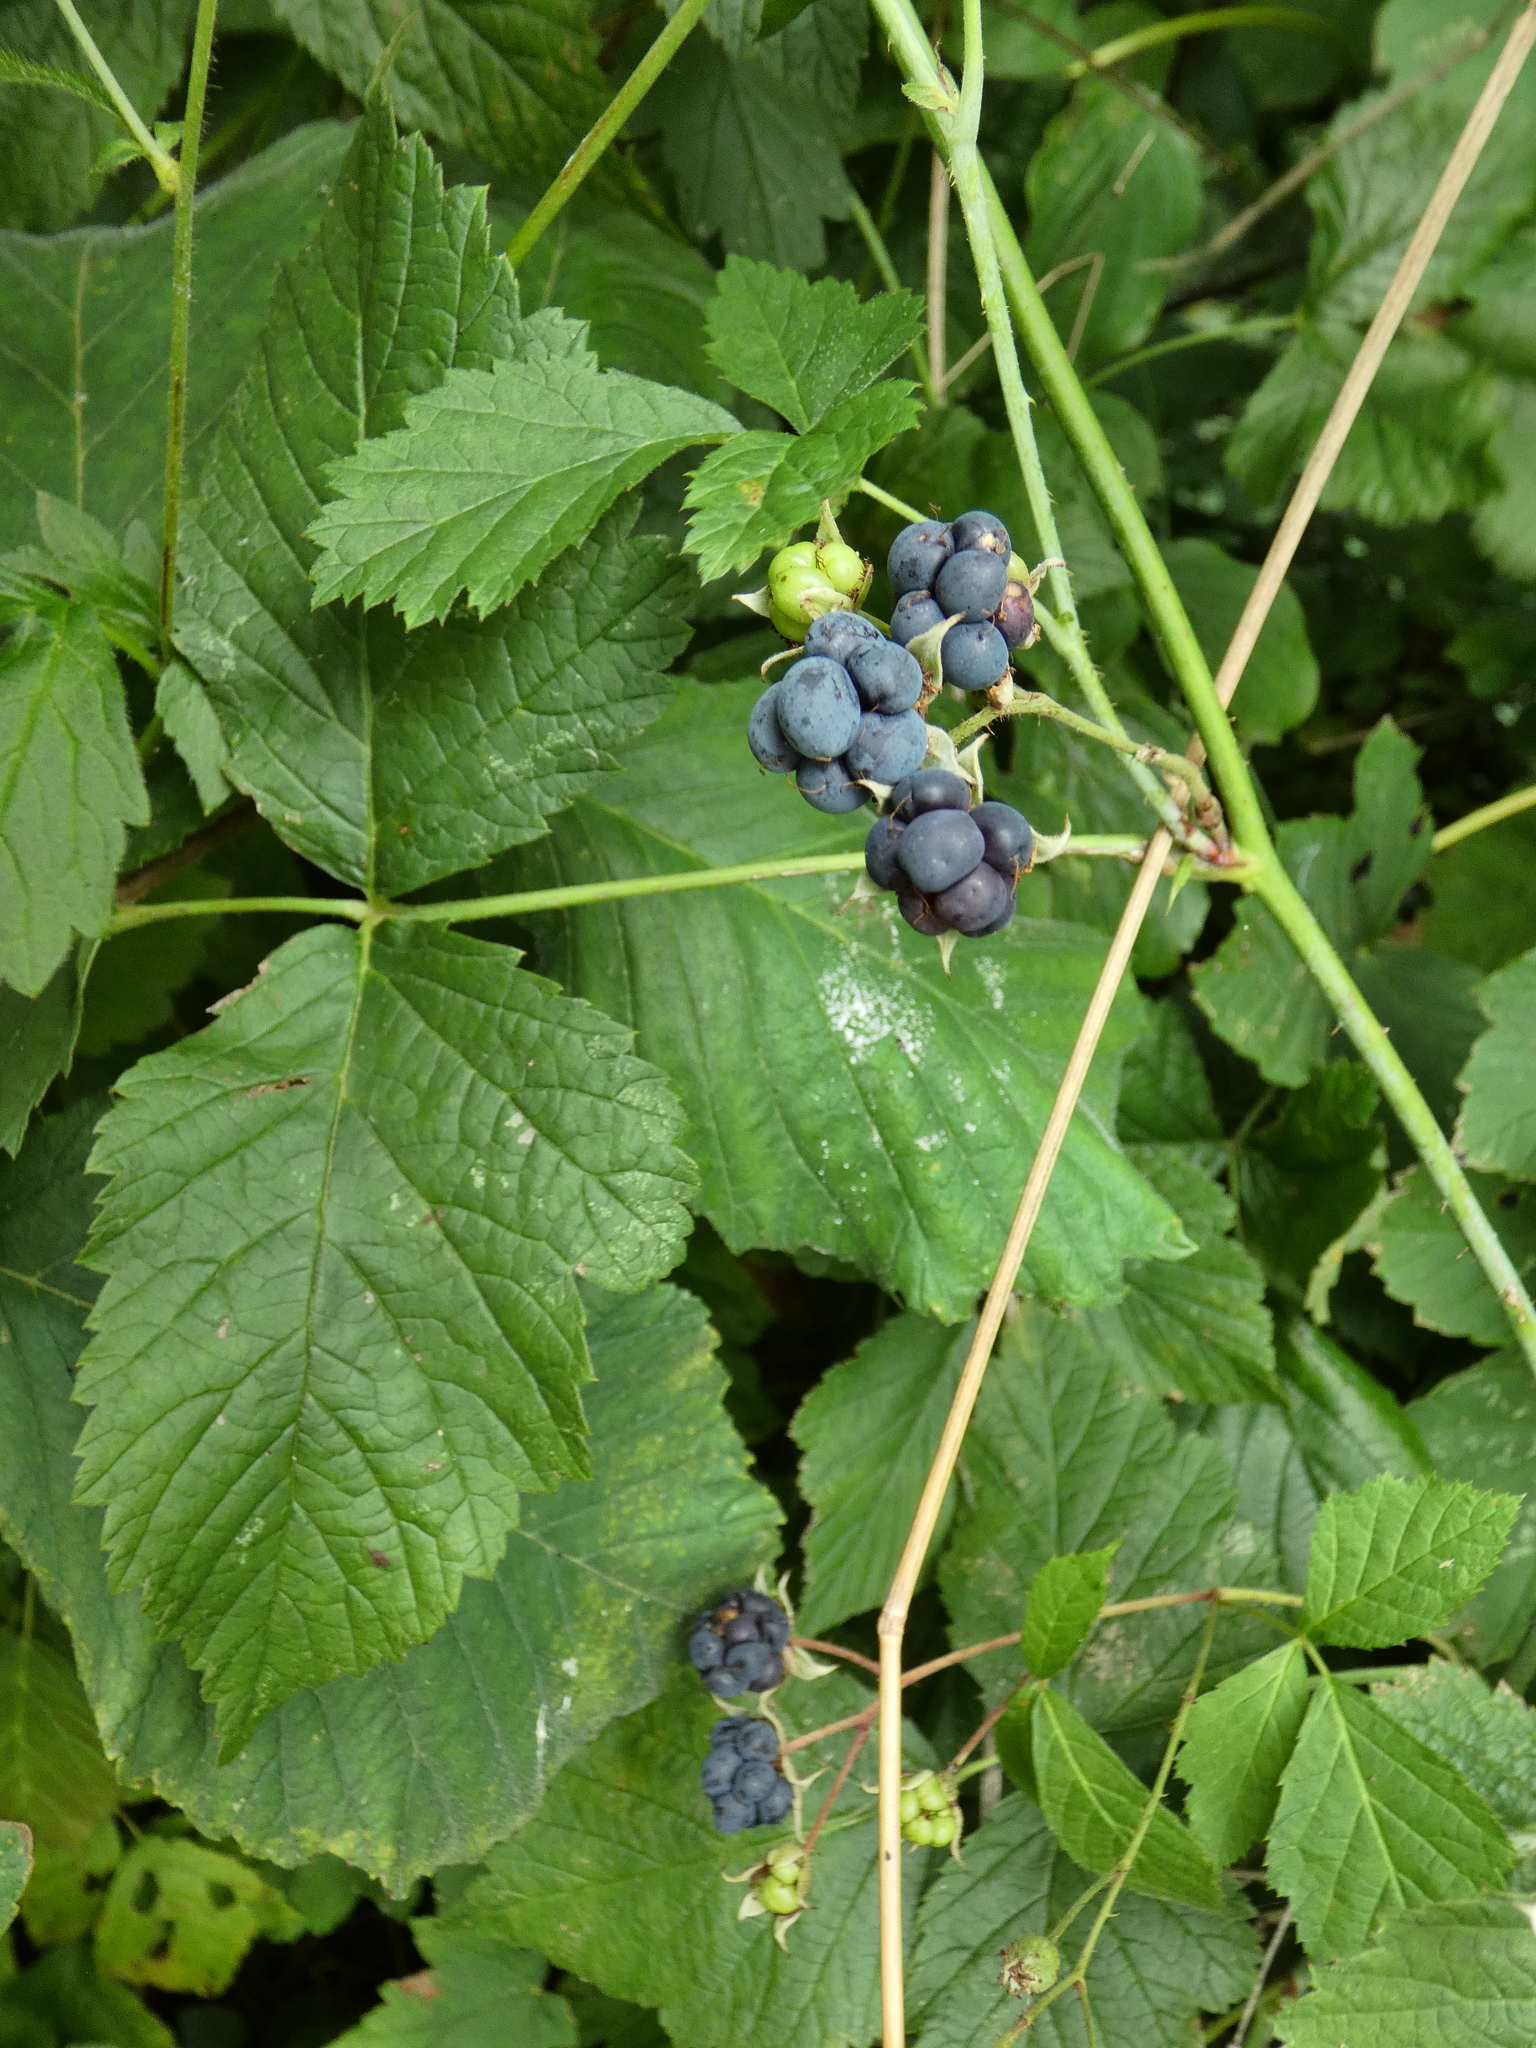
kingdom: Plantae
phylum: Tracheophyta
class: Magnoliopsida
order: Rosales
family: Rosaceae
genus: Rubus
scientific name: Rubus caesius
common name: Dewberry
